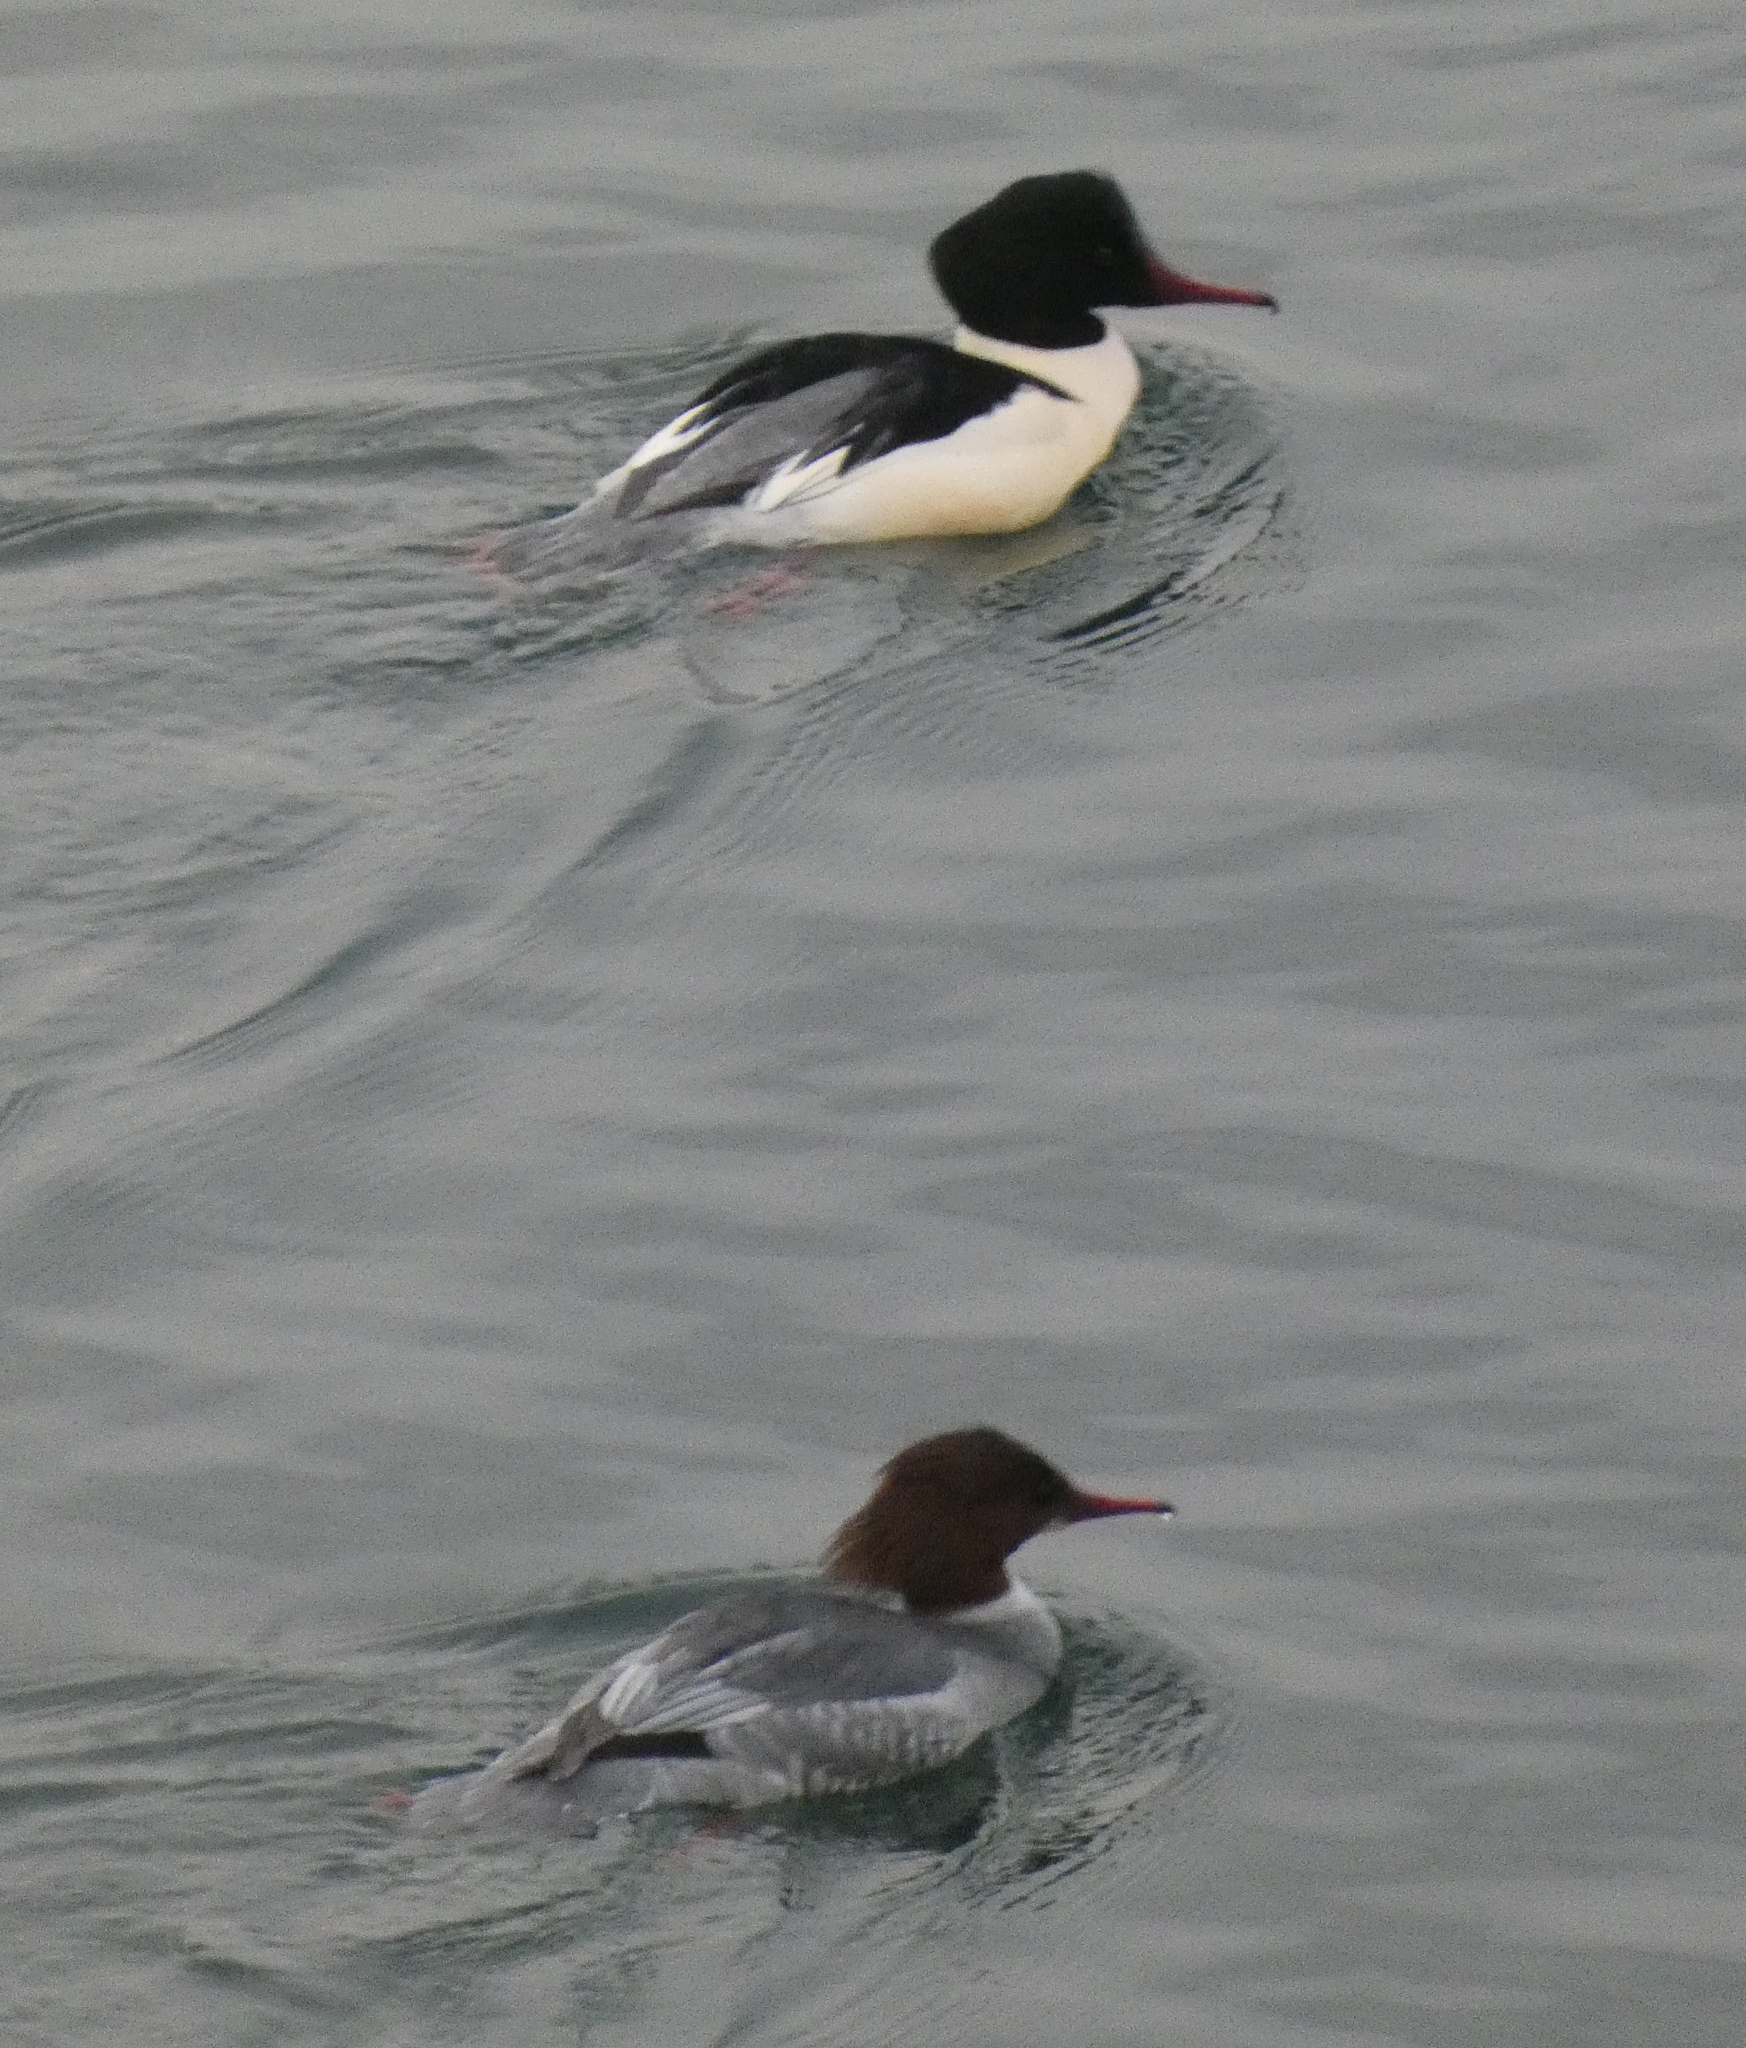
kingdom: Animalia
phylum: Chordata
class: Aves
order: Anseriformes
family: Anatidae
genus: Mergus
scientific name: Mergus merganser
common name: Common merganser
